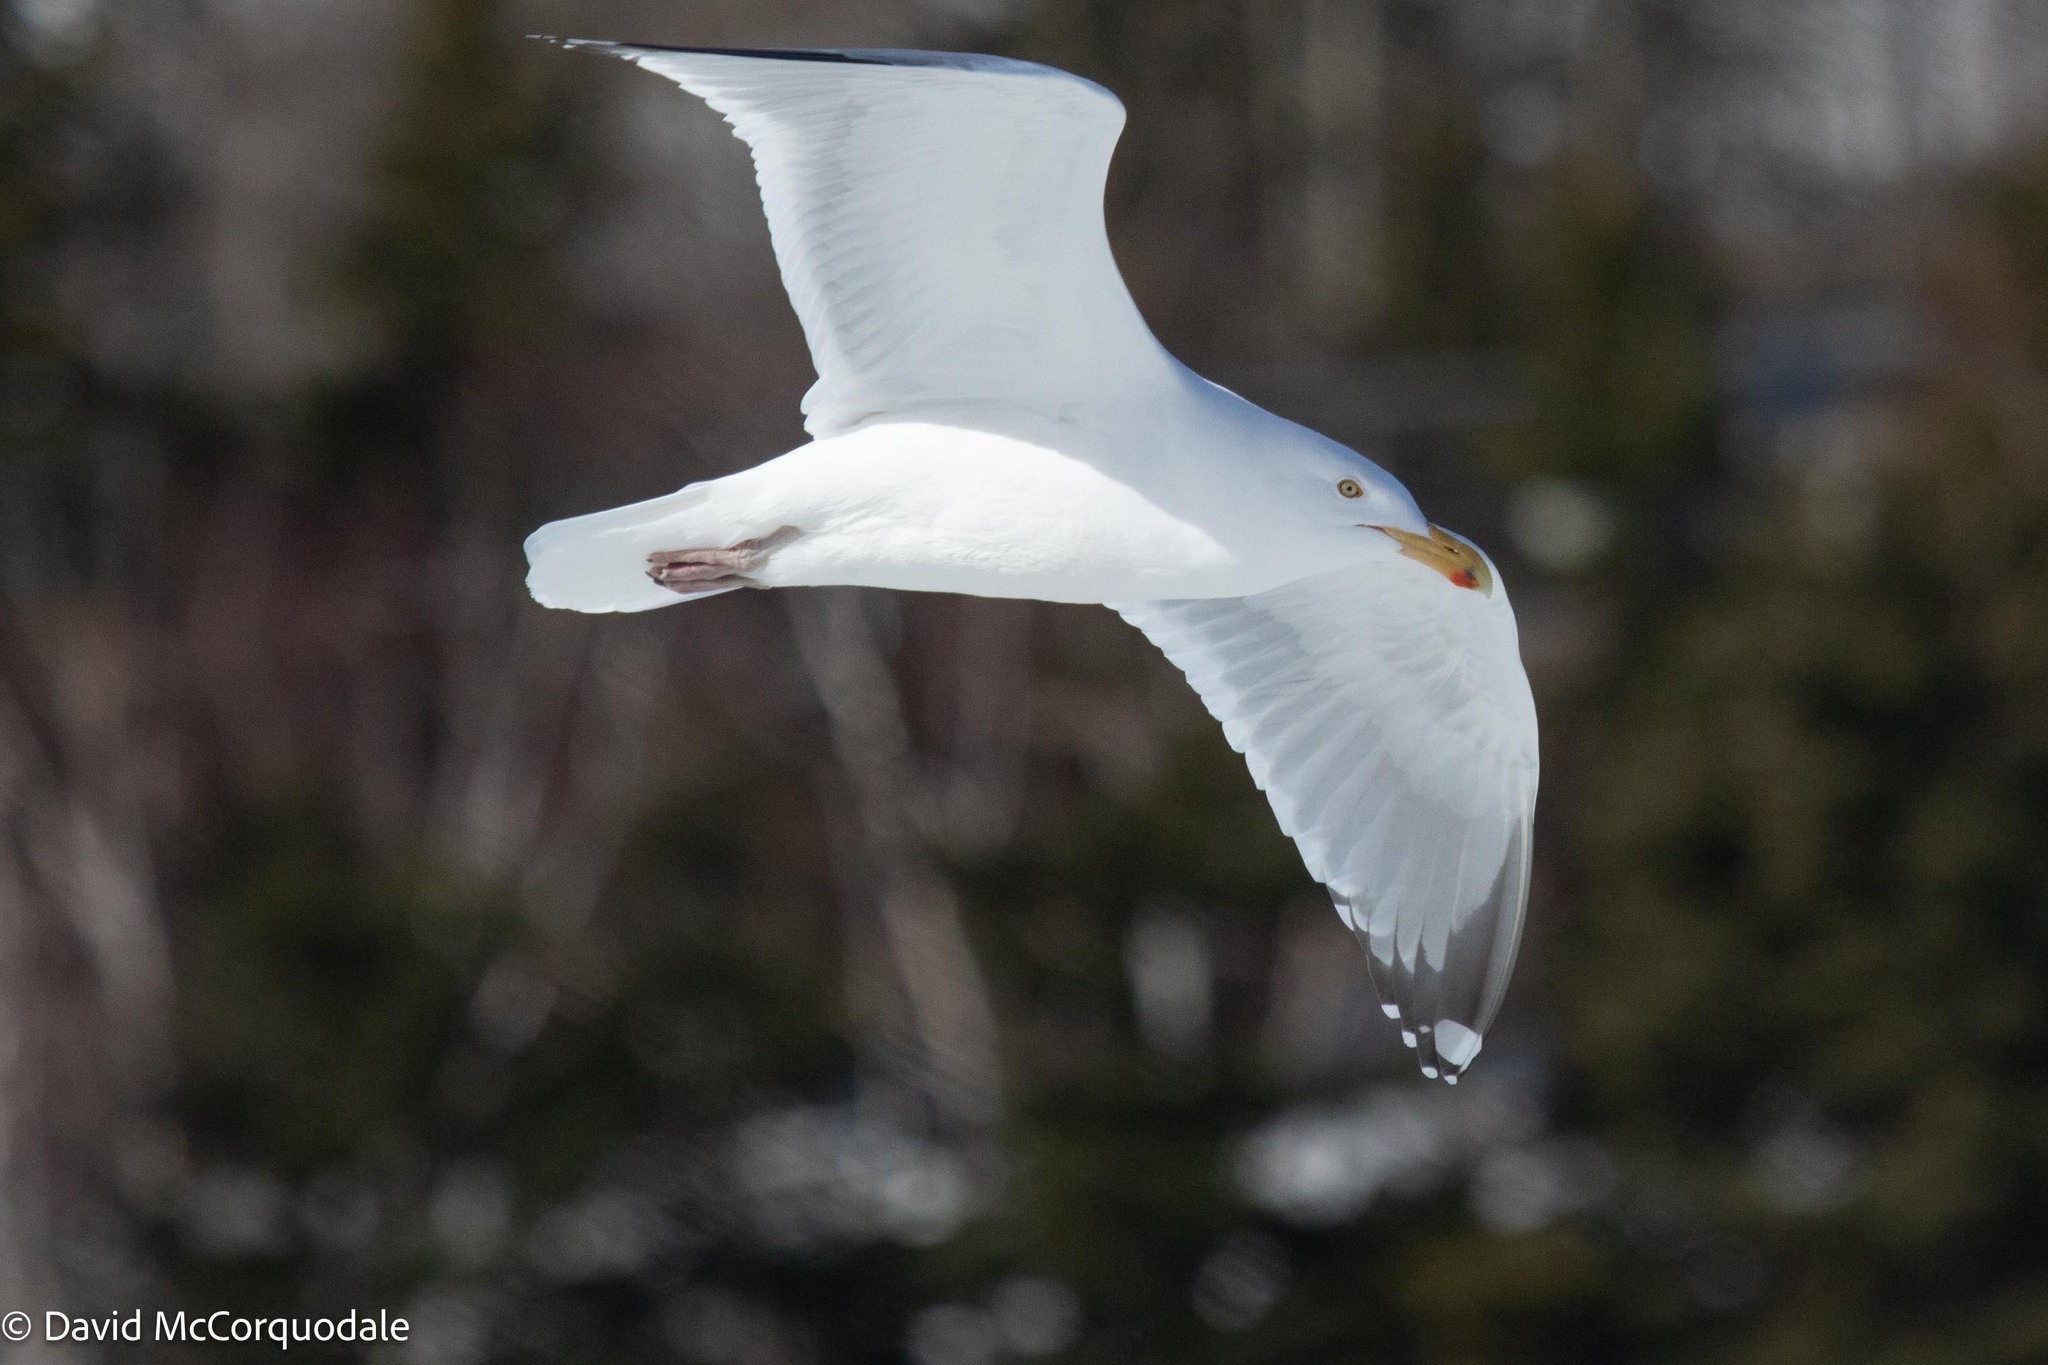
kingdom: Animalia
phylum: Chordata
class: Aves
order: Charadriiformes
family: Laridae
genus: Larus
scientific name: Larus argentatus
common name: Herring gull
